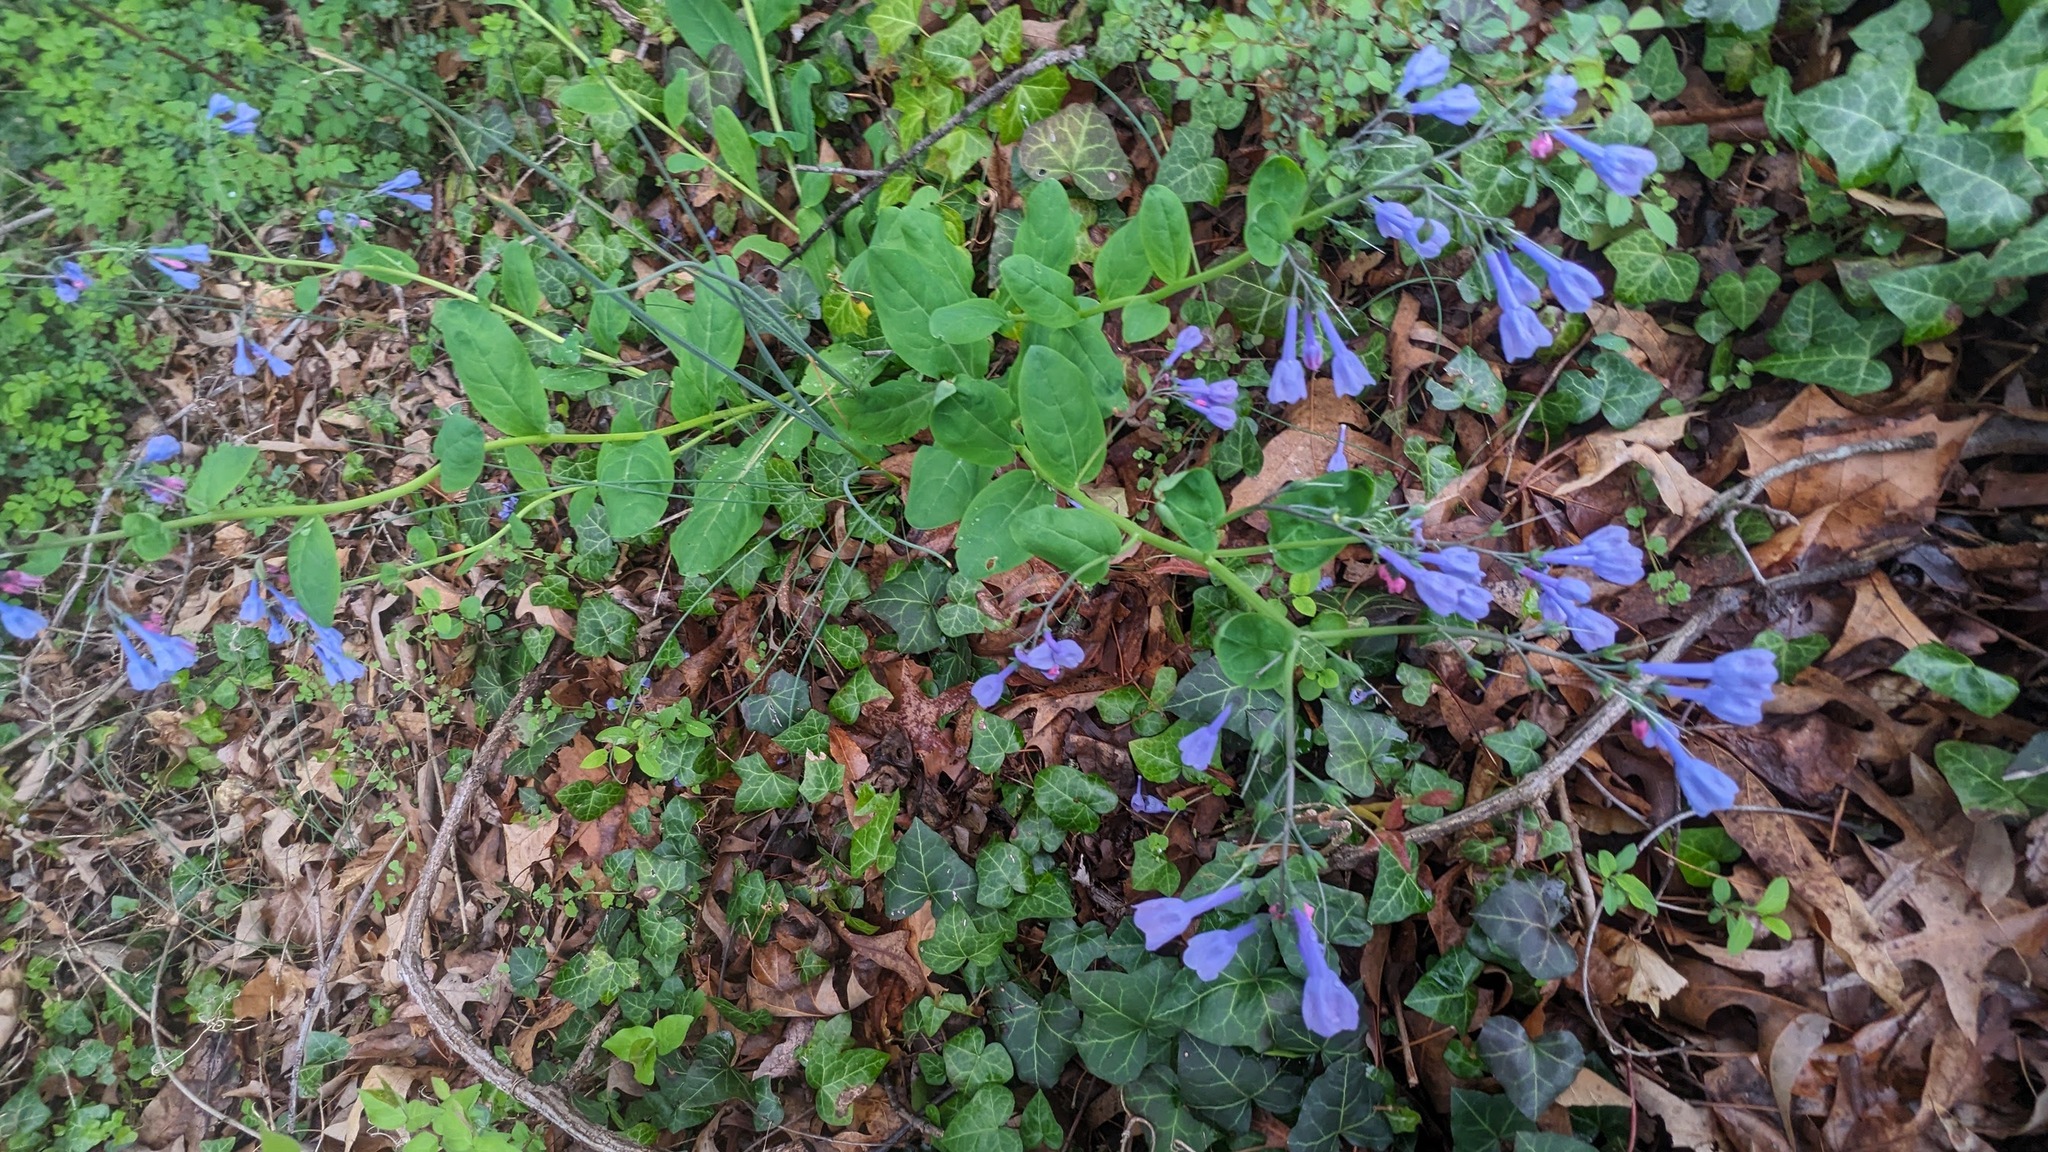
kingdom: Plantae
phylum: Tracheophyta
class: Magnoliopsida
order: Boraginales
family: Boraginaceae
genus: Mertensia
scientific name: Mertensia virginica
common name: Virginia bluebells
